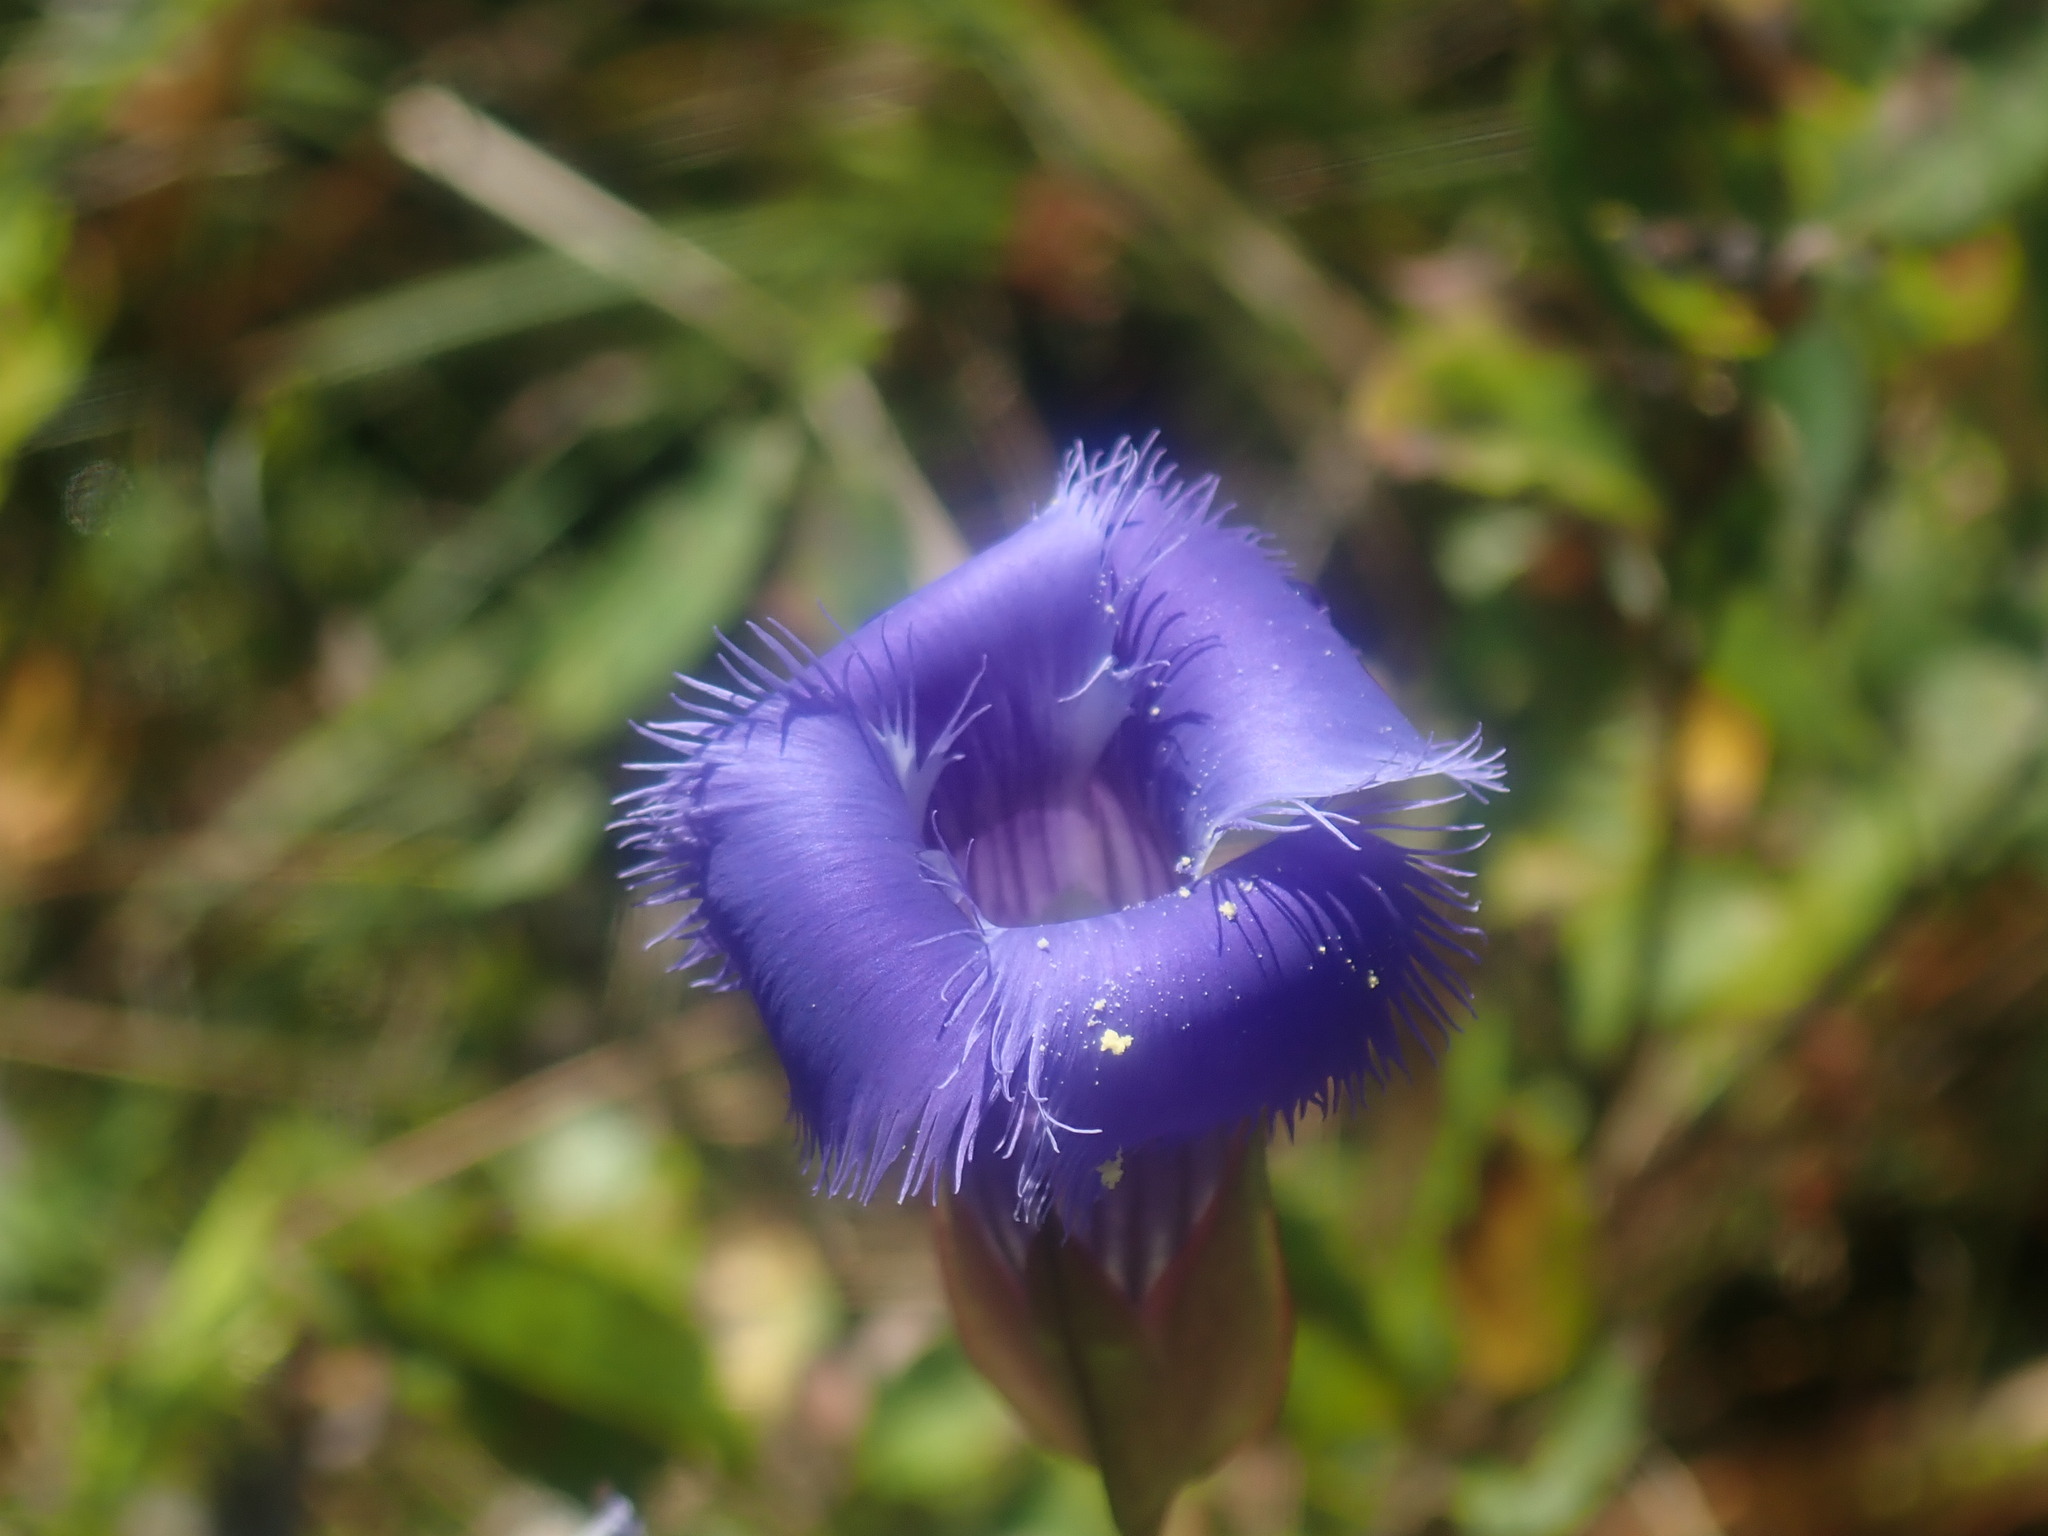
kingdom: Plantae
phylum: Tracheophyta
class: Magnoliopsida
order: Gentianales
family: Gentianaceae
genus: Gentianopsis
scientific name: Gentianopsis crinita
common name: Fringed-gentian
